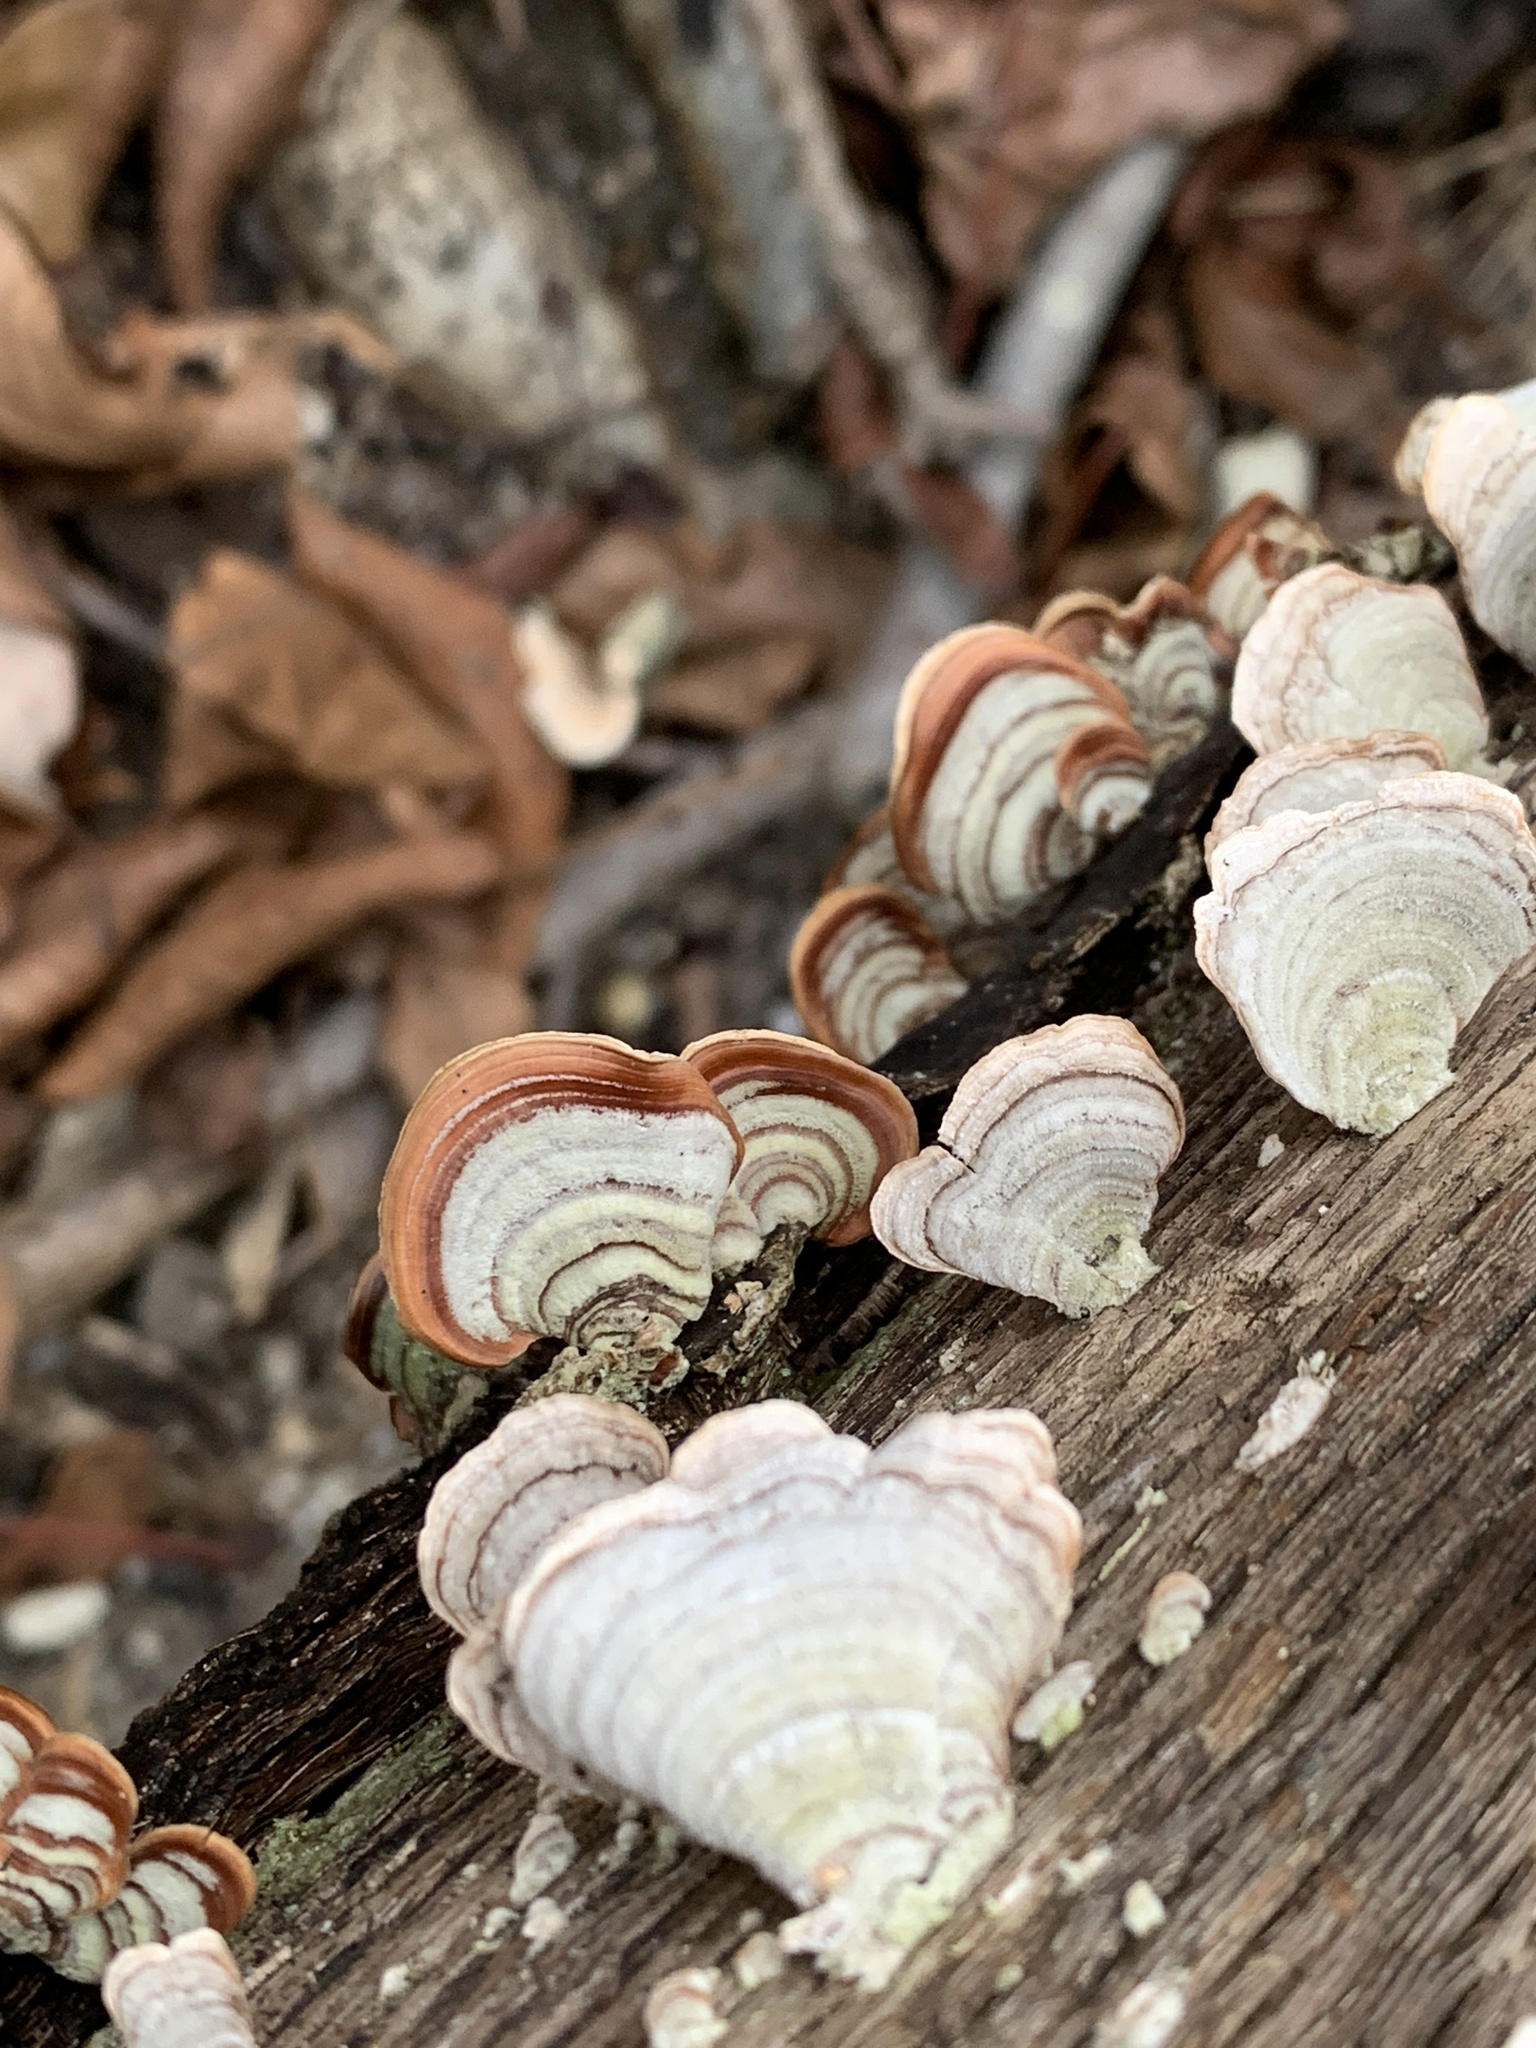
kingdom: Fungi
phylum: Basidiomycota
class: Agaricomycetes
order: Russulales
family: Stereaceae
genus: Stereum
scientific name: Stereum lobatum
